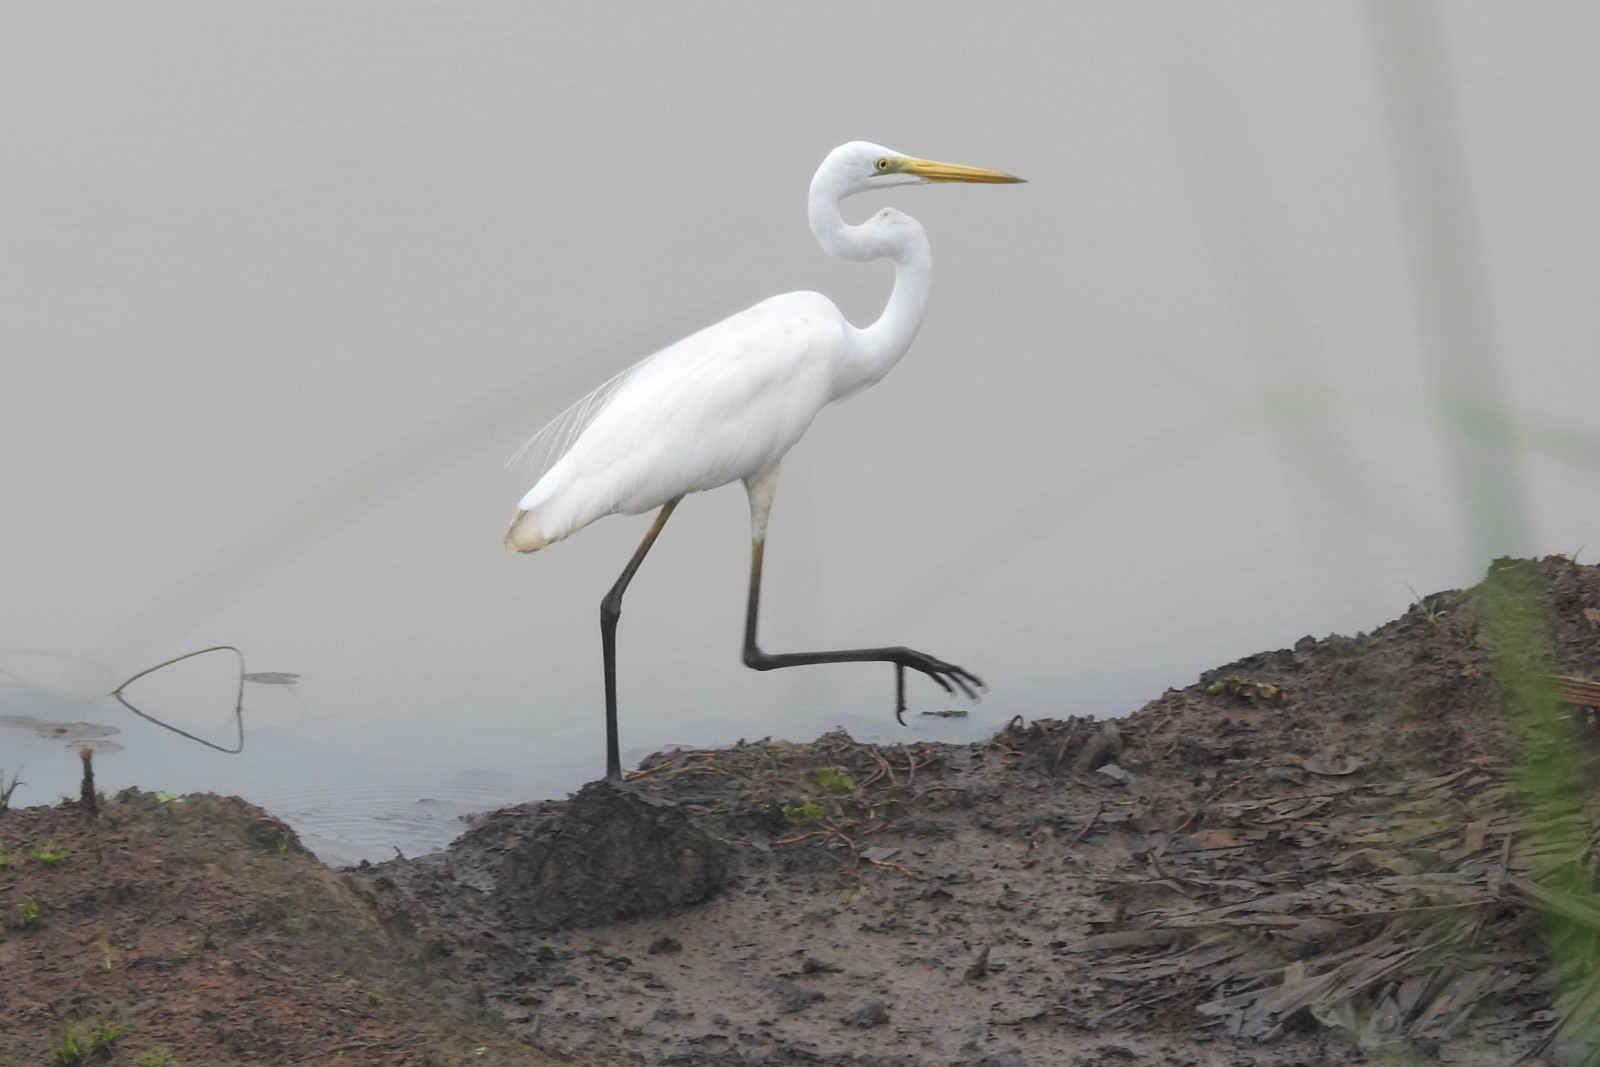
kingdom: Animalia
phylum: Chordata
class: Aves
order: Pelecaniformes
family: Ardeidae
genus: Ardea
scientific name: Ardea alba
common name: Great egret
